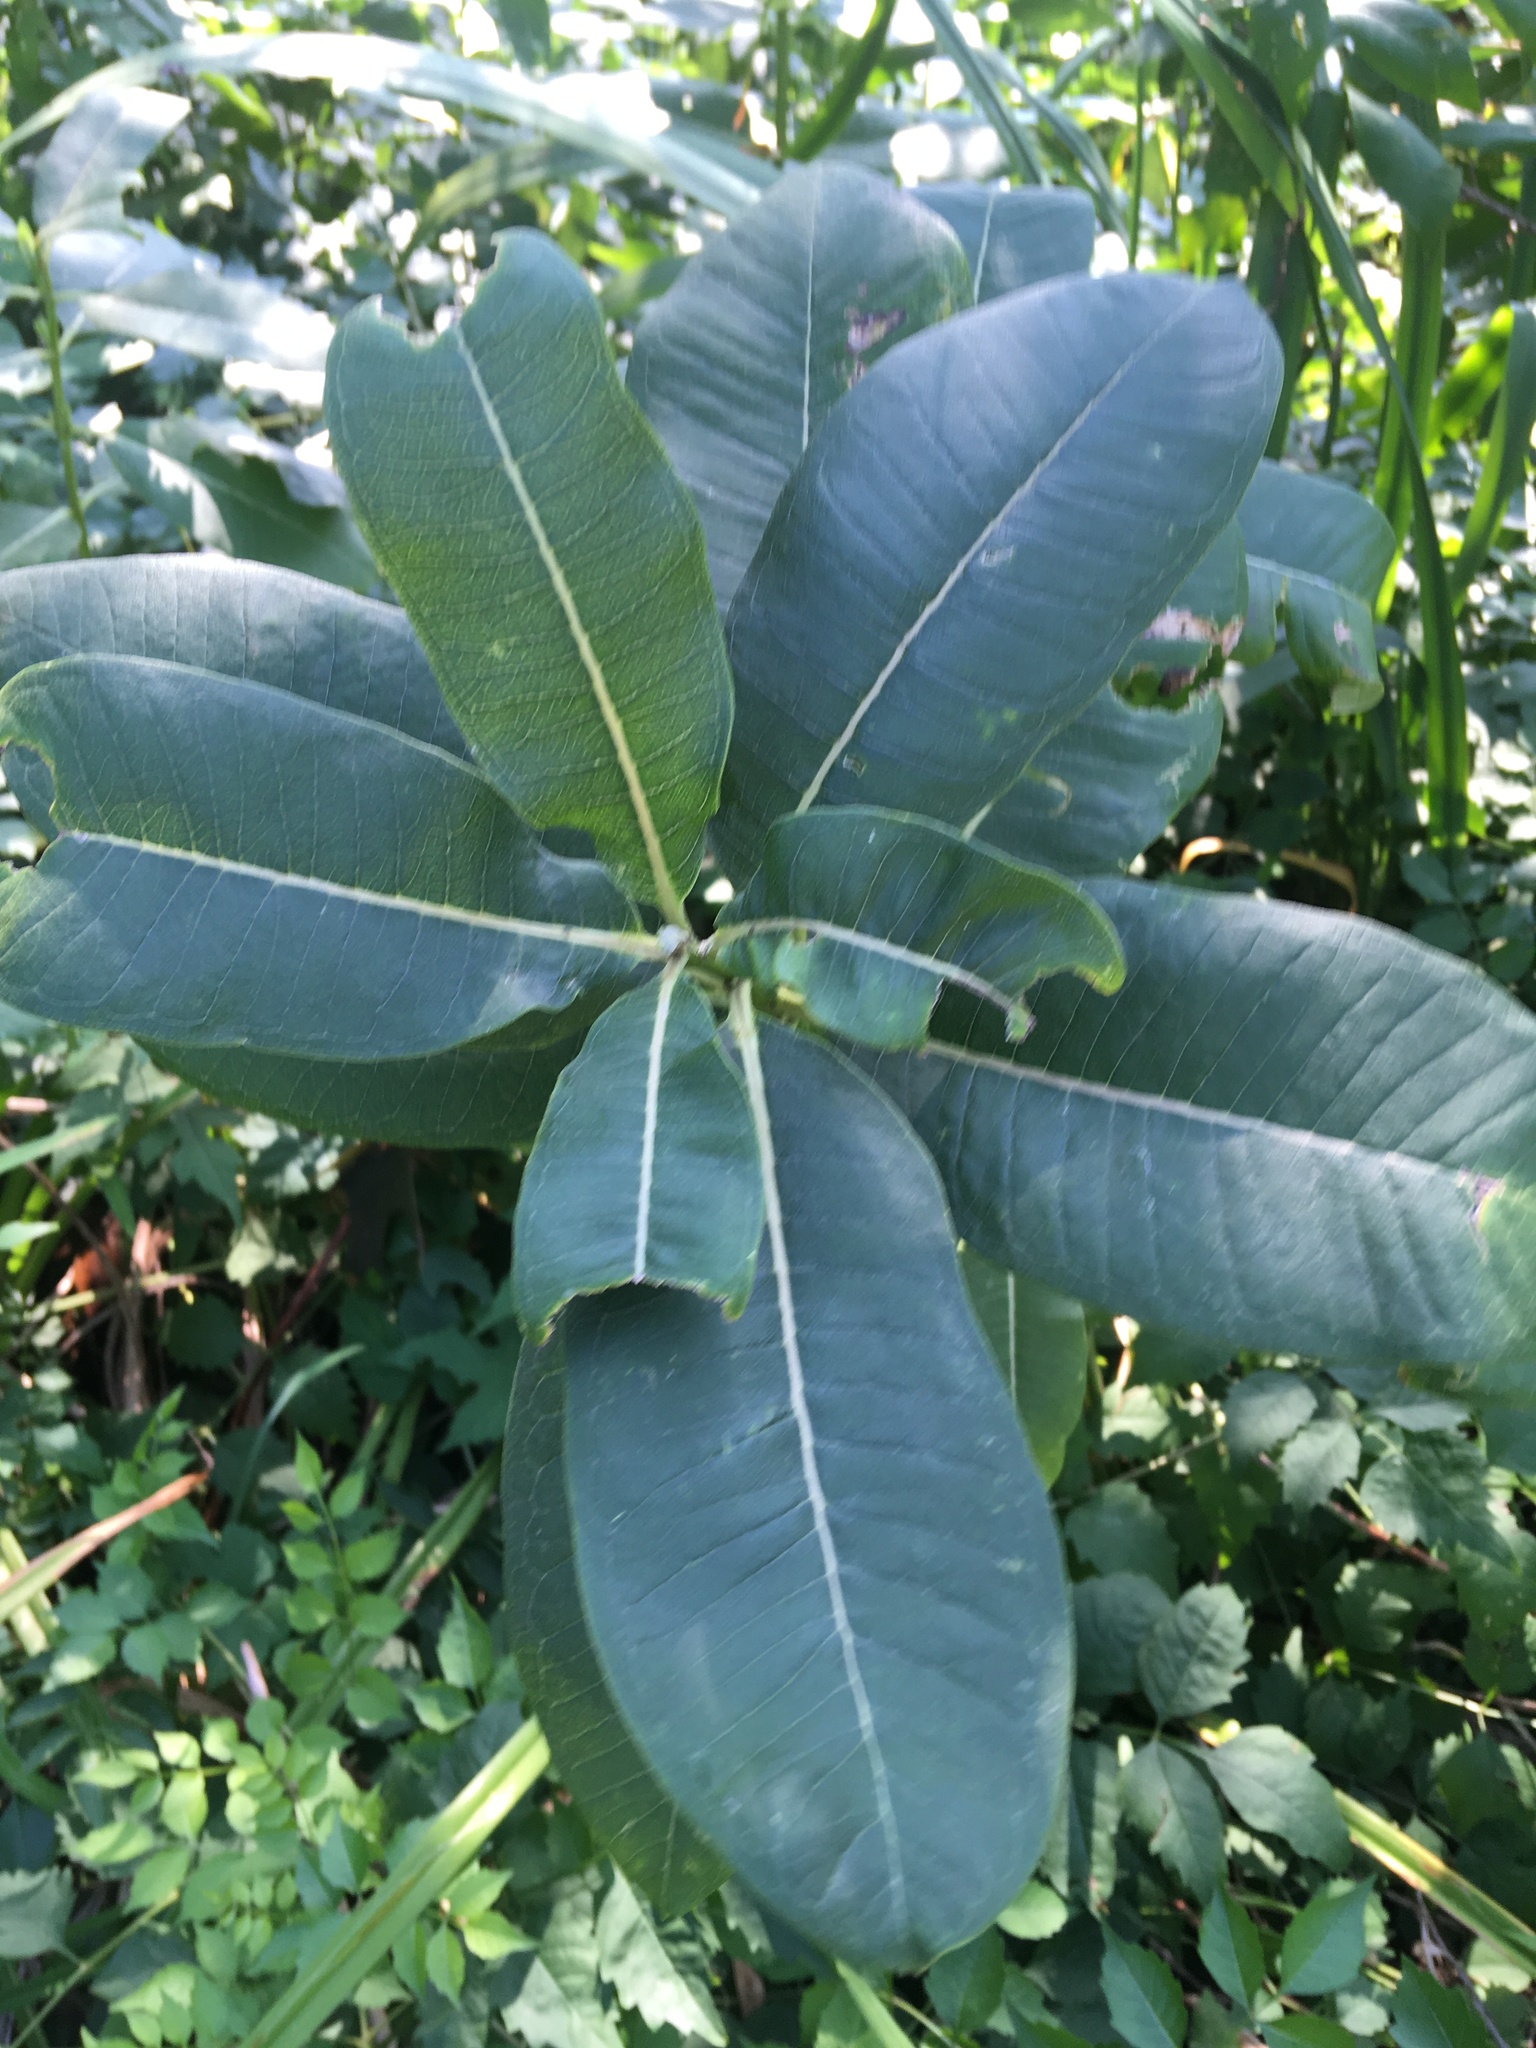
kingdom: Plantae
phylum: Tracheophyta
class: Magnoliopsida
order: Gentianales
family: Apocynaceae
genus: Asclepias
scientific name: Asclepias syriaca
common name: Common milkweed
